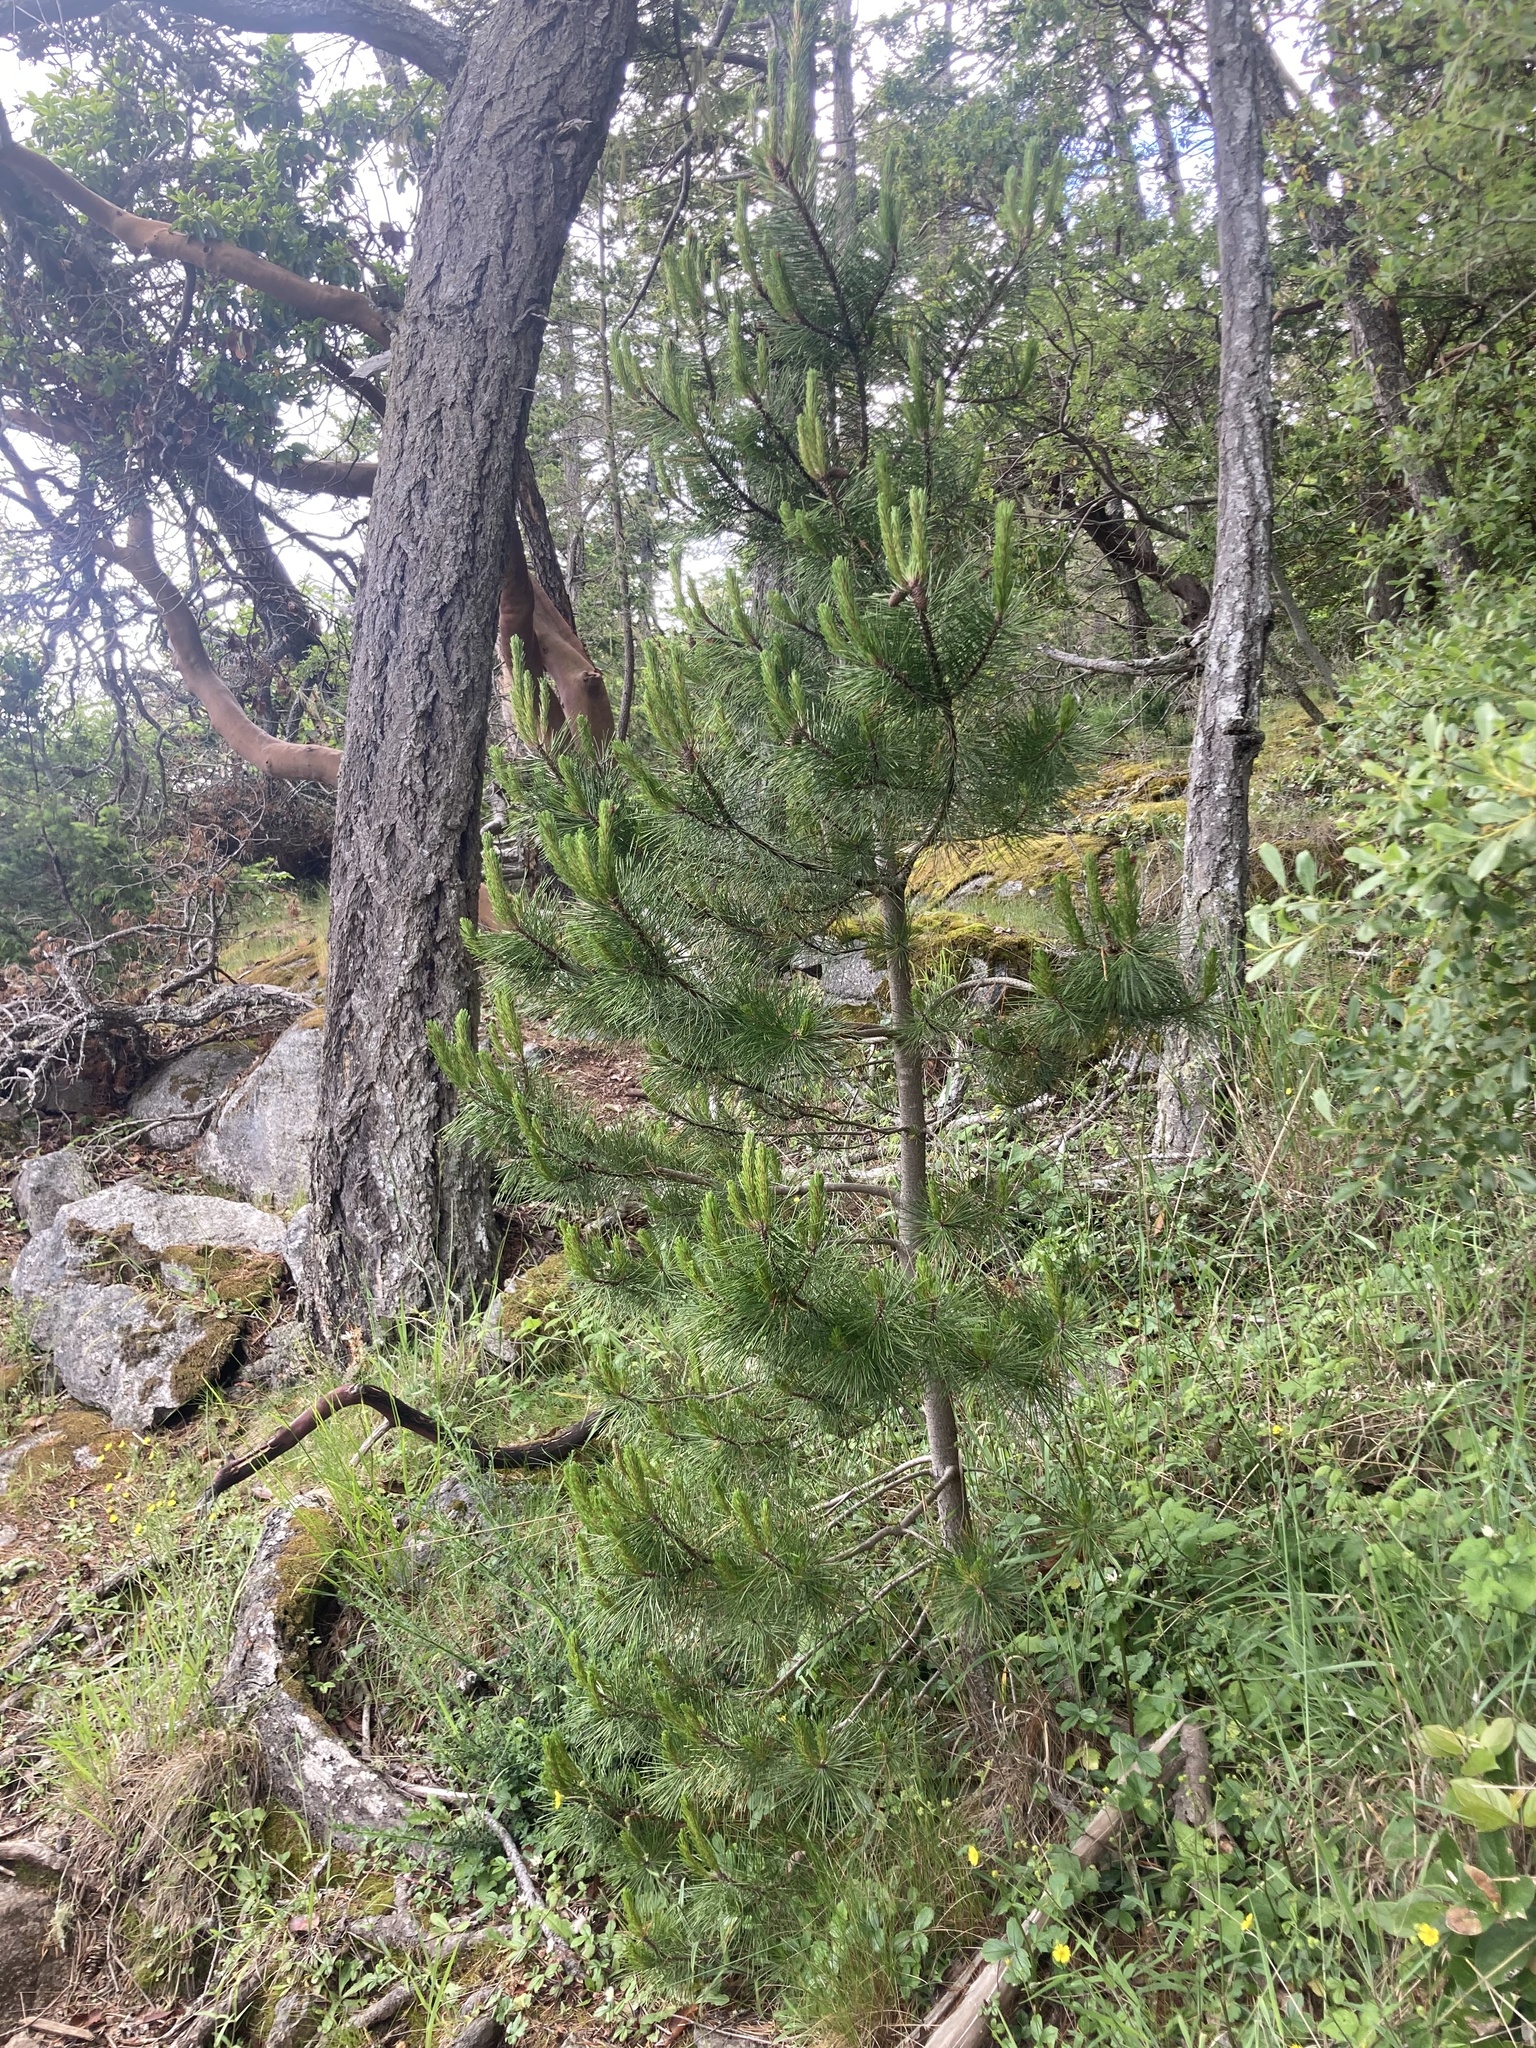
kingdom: Plantae
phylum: Tracheophyta
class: Pinopsida
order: Pinales
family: Pinaceae
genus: Pinus
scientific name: Pinus contorta
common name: Lodgepole pine
